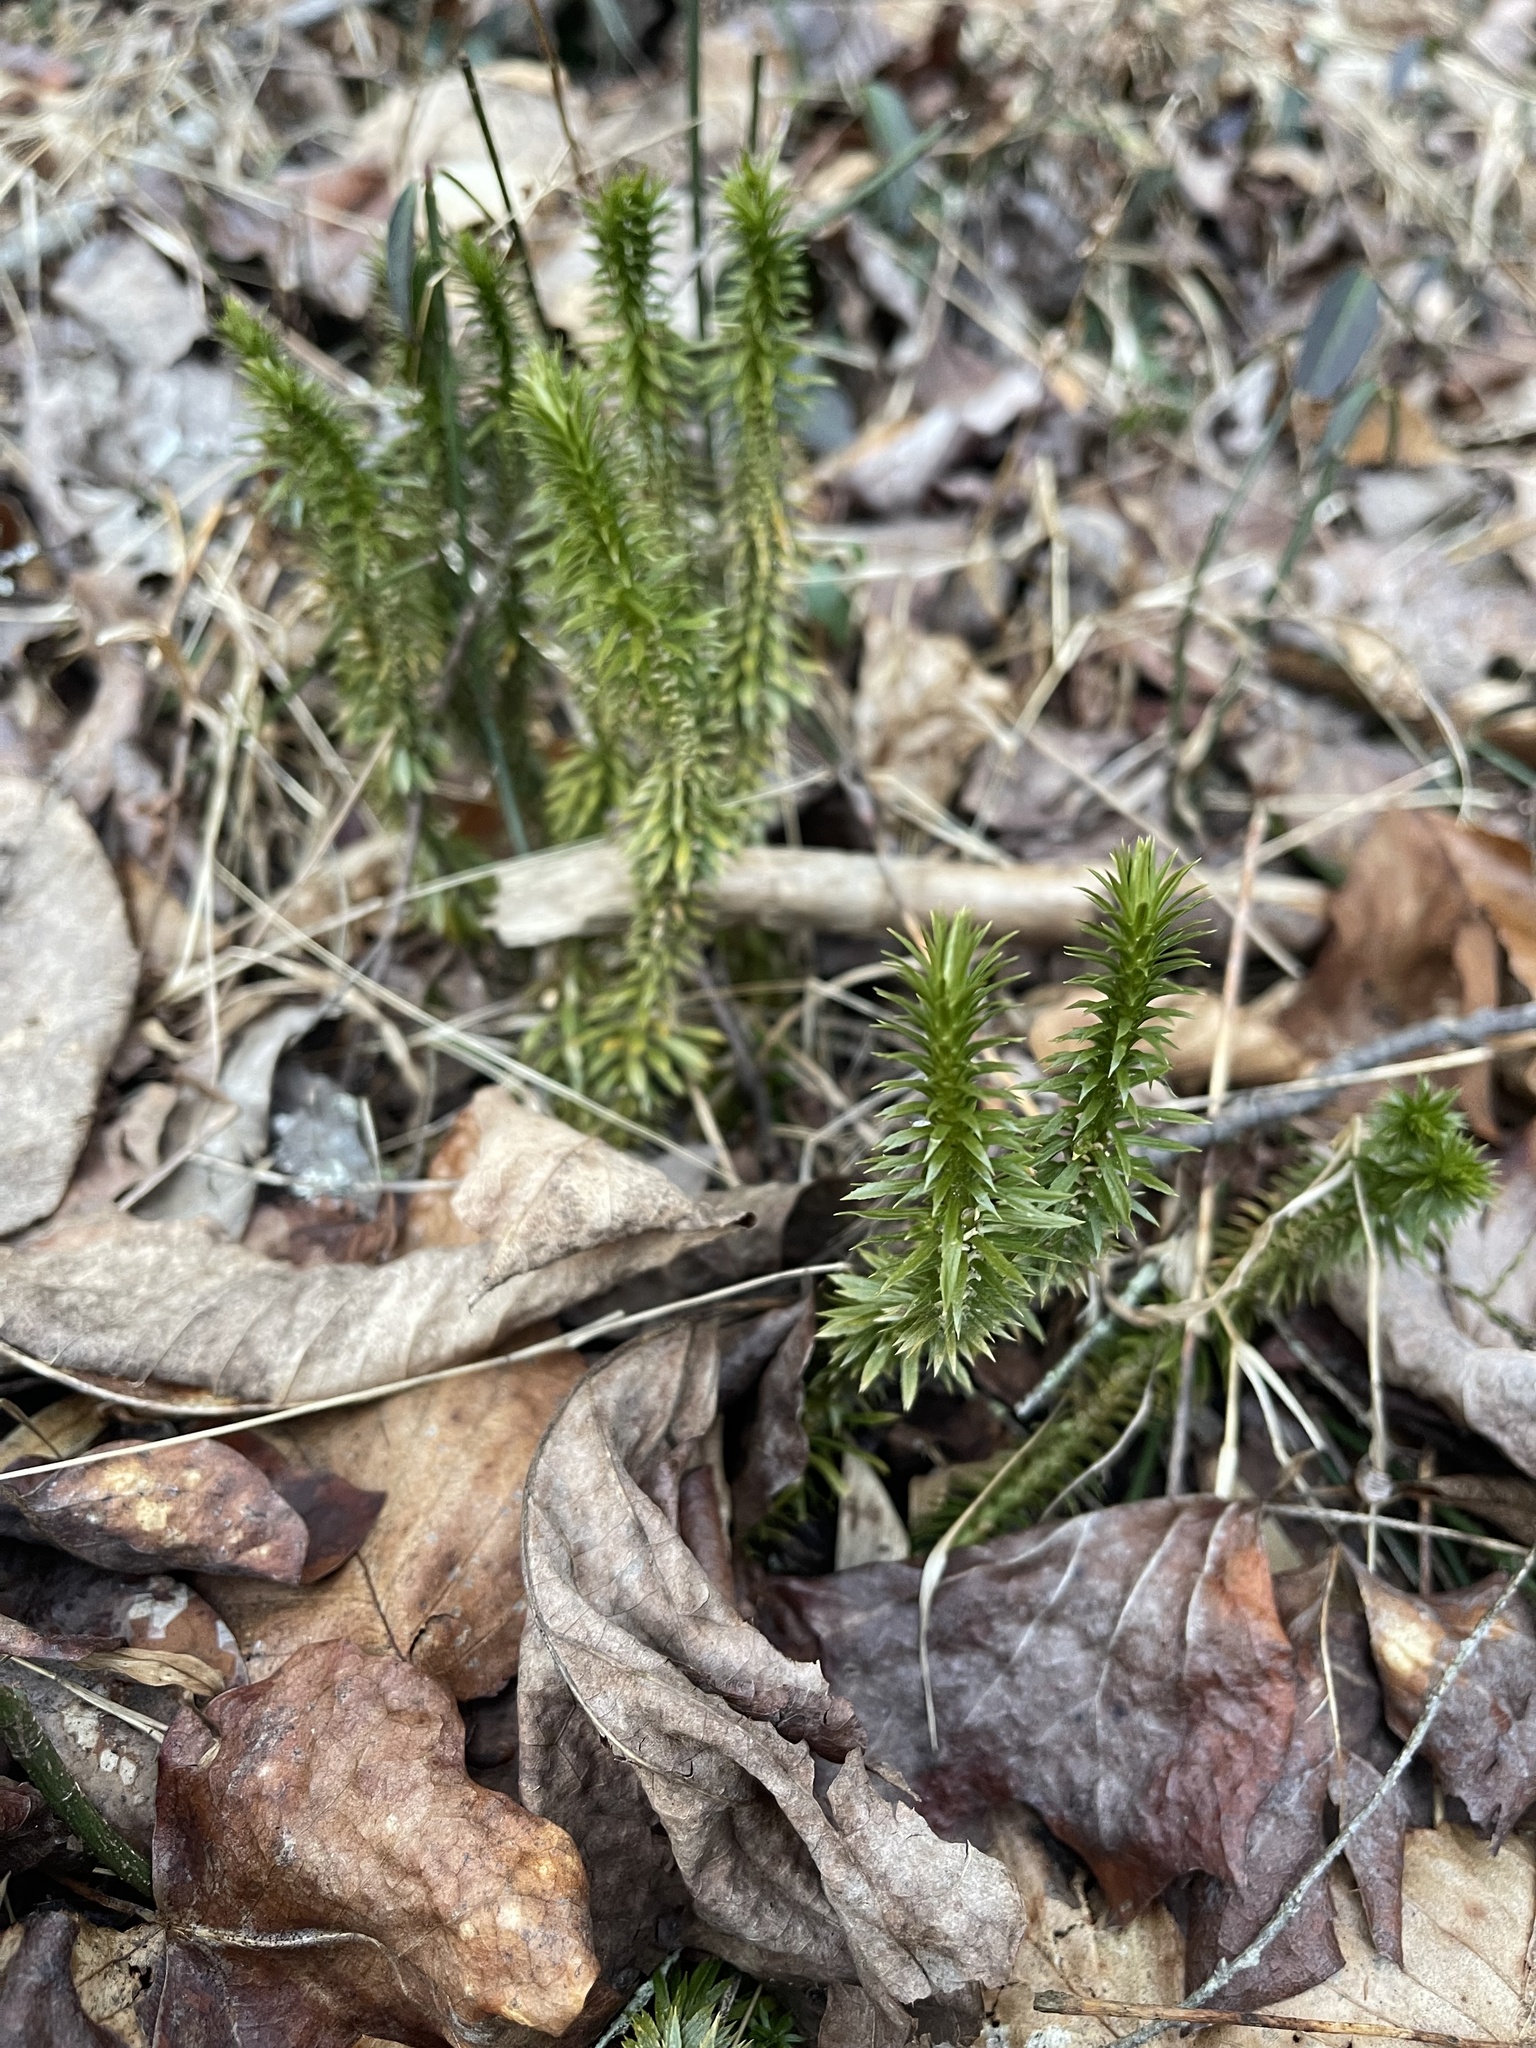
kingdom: Plantae
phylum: Tracheophyta
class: Lycopodiopsida
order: Lycopodiales
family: Lycopodiaceae
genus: Huperzia
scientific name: Huperzia lucidula
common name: Shining clubmoss
